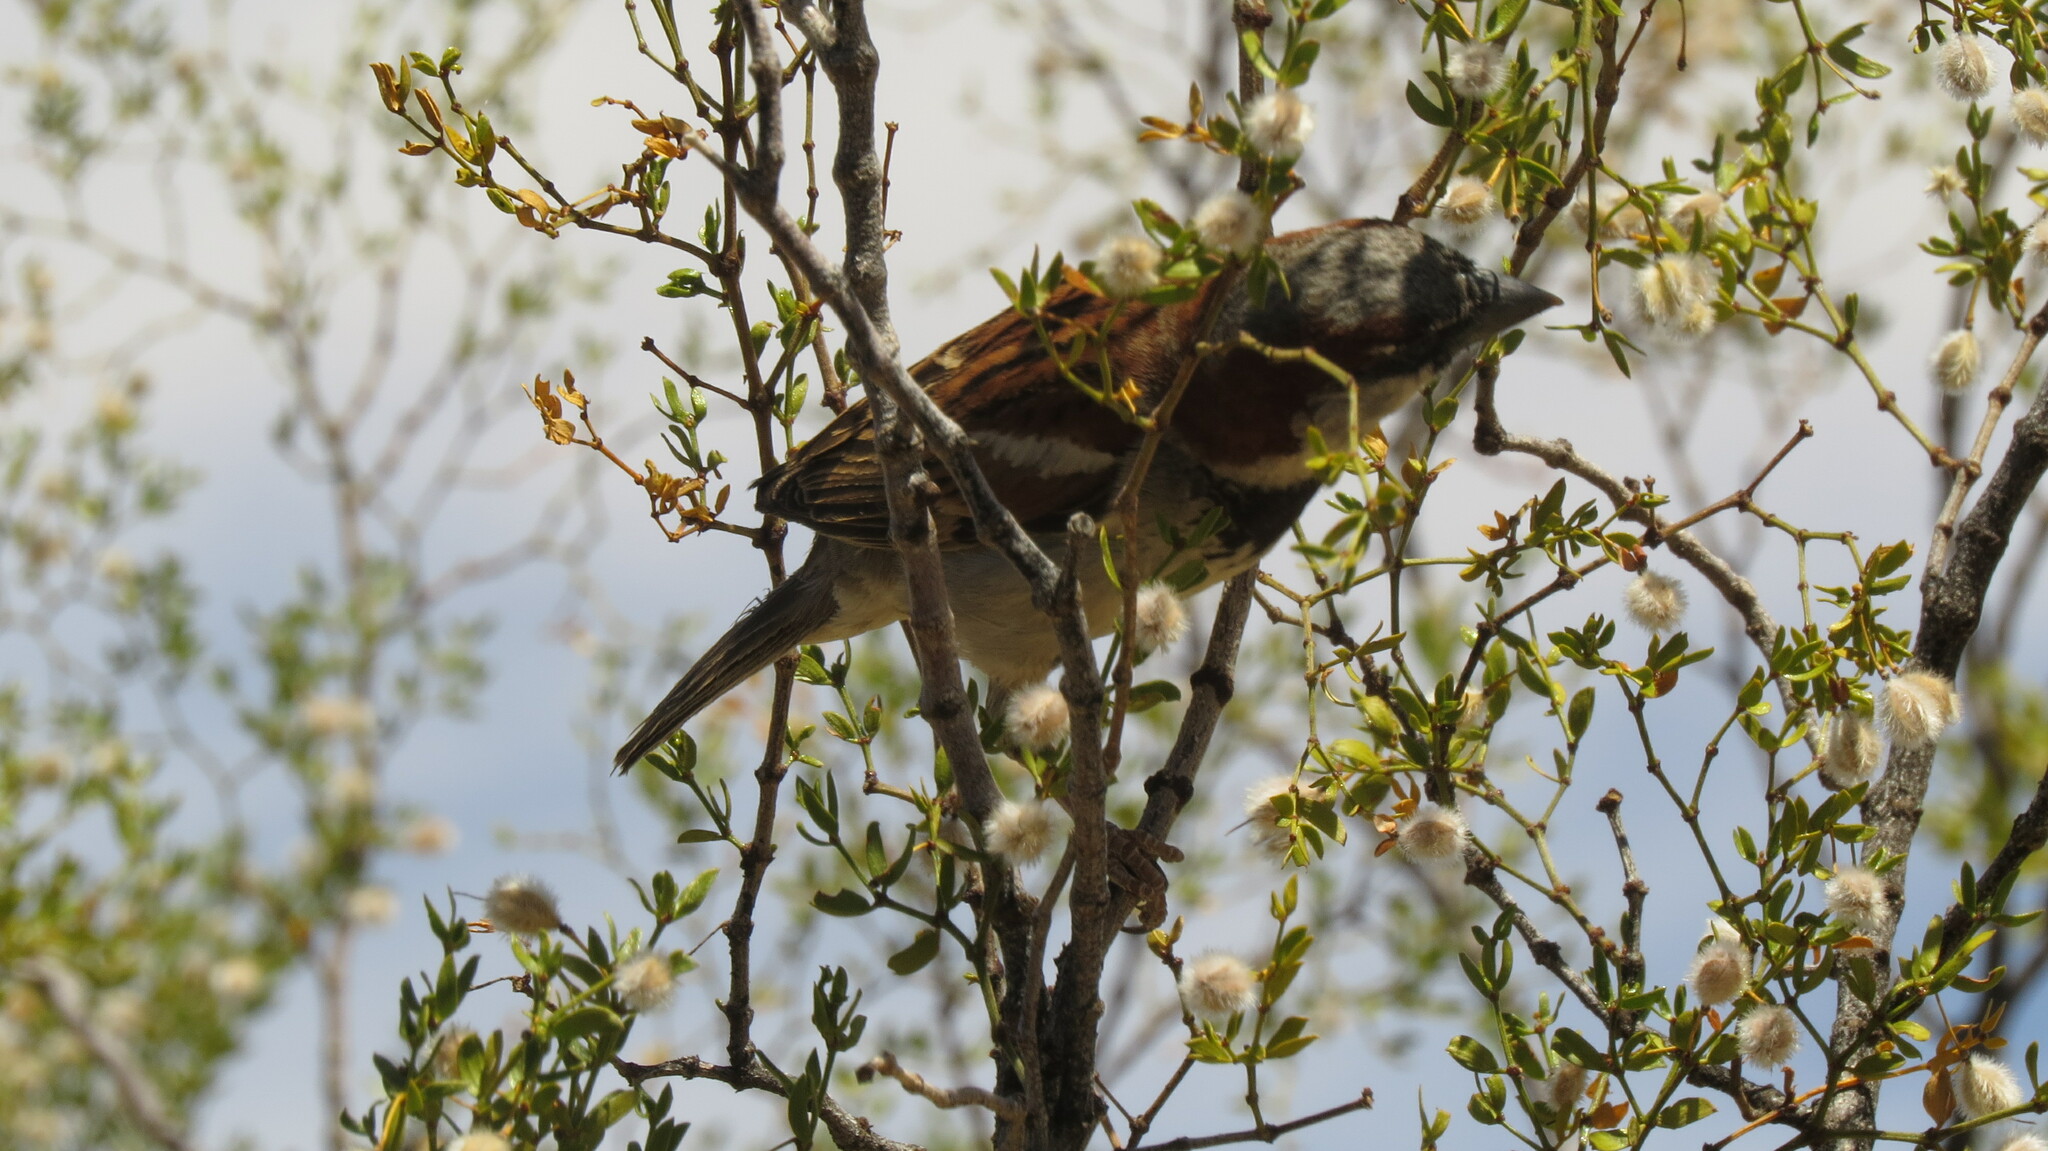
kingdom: Animalia
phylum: Chordata
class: Aves
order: Passeriformes
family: Passeridae
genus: Passer
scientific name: Passer domesticus
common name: House sparrow
